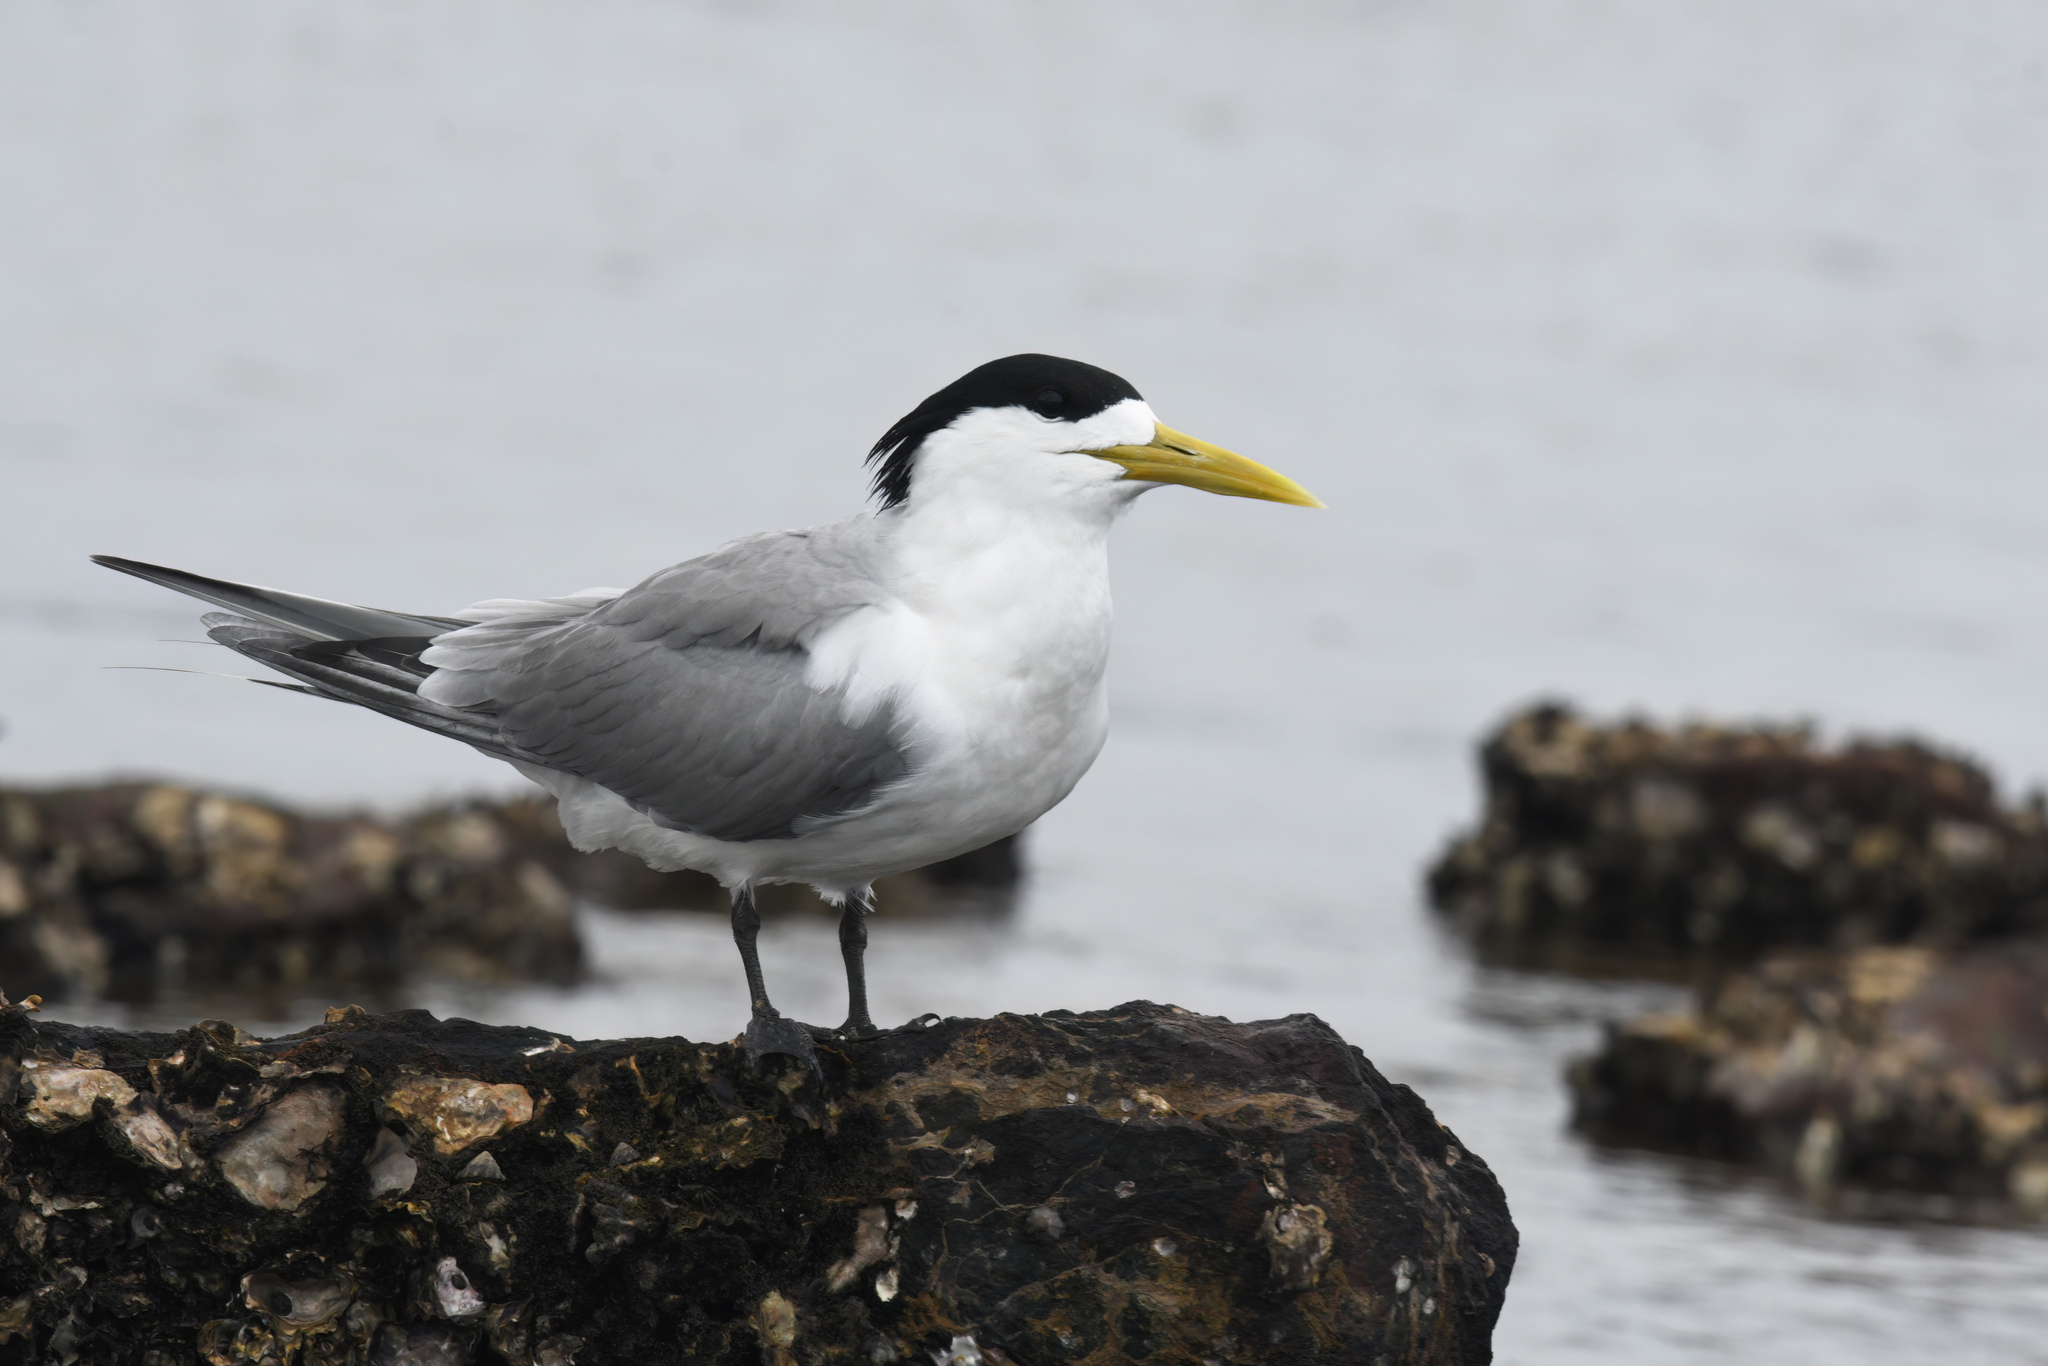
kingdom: Animalia
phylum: Chordata
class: Aves
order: Charadriiformes
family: Laridae
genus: Thalasseus
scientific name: Thalasseus bergii
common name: Greater crested tern
